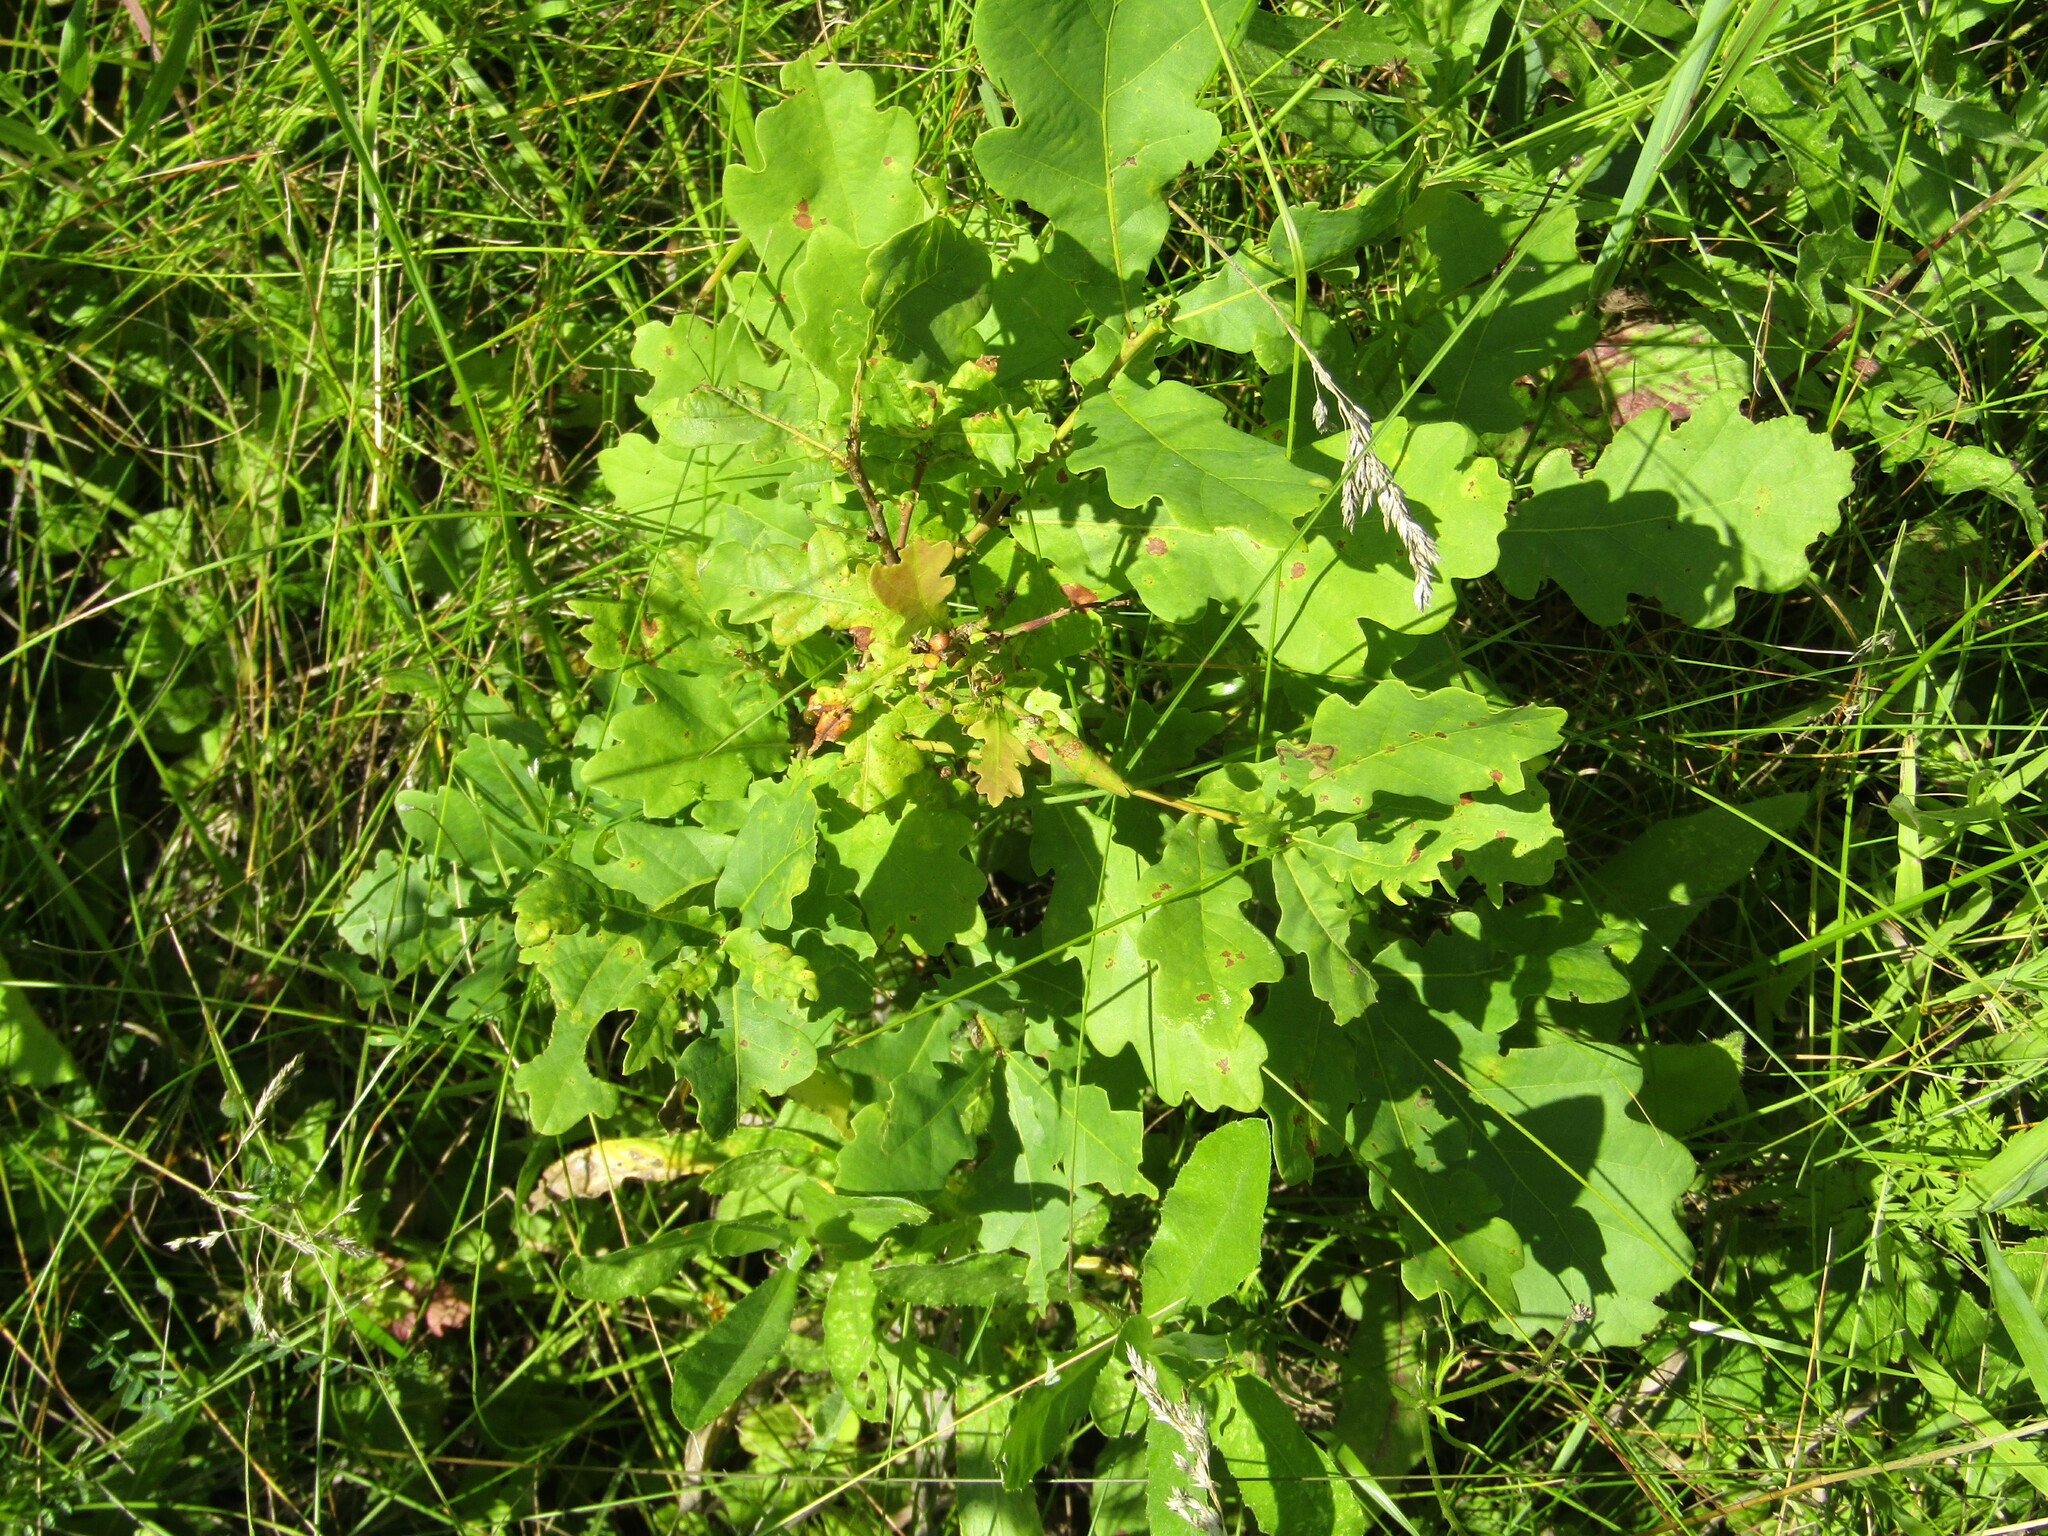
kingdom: Plantae
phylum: Tracheophyta
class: Magnoliopsida
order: Fagales
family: Fagaceae
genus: Quercus
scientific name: Quercus robur
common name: Pedunculate oak
